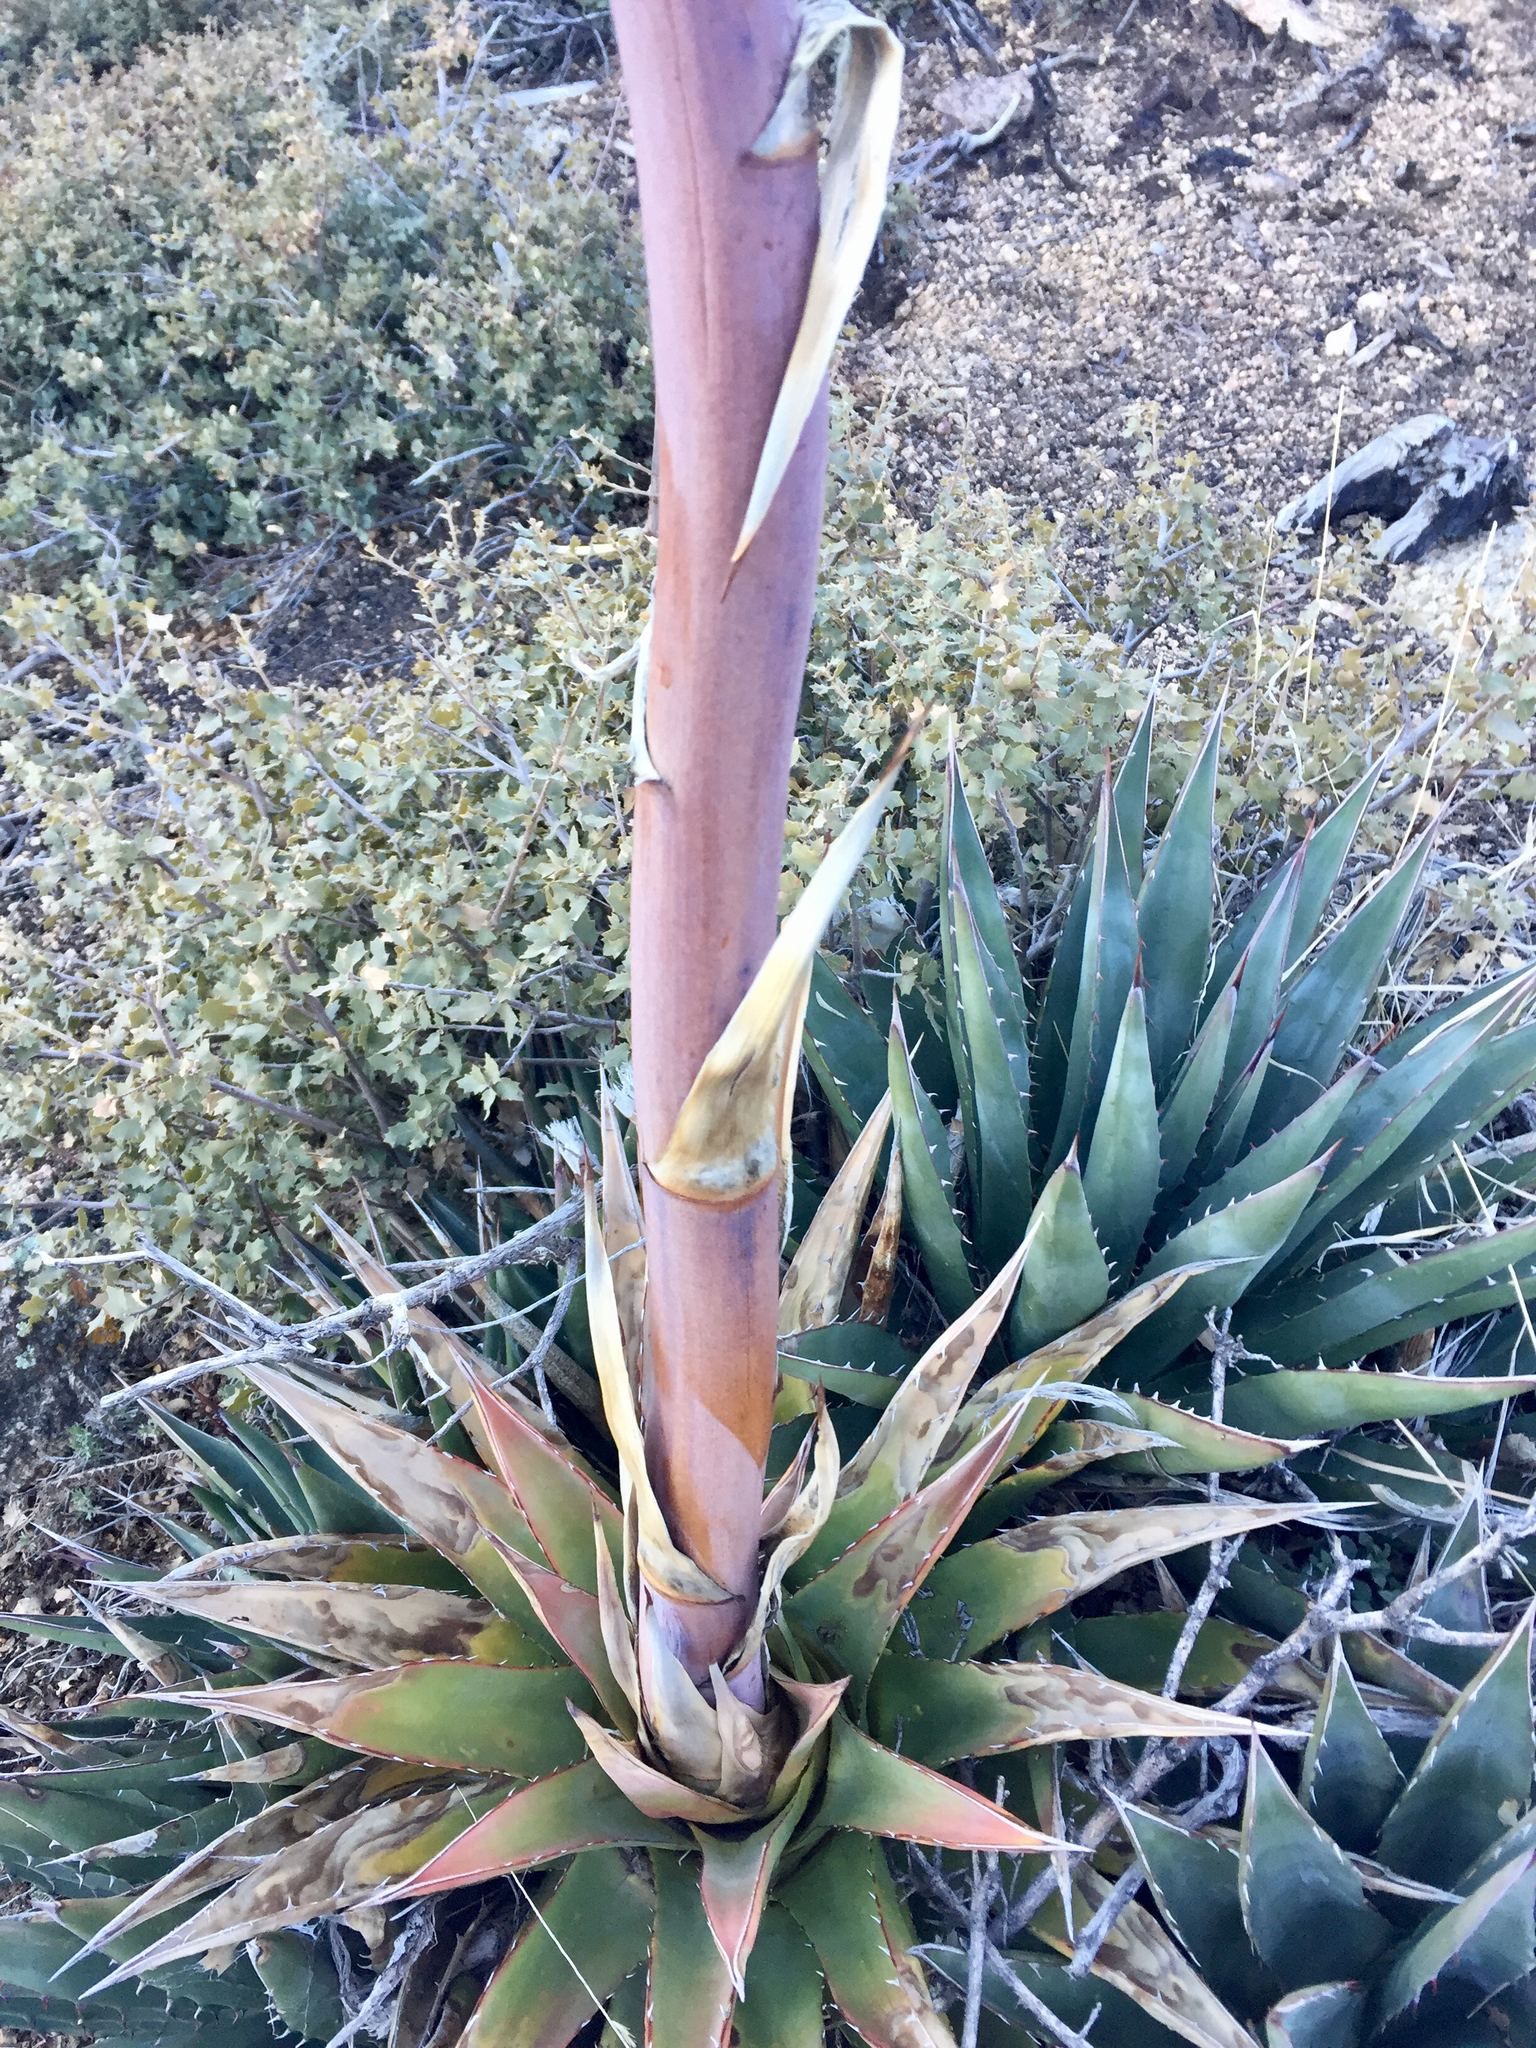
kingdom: Plantae
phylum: Tracheophyta
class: Liliopsida
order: Asparagales
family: Asparagaceae
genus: Agave
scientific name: Agave mckelveyana
